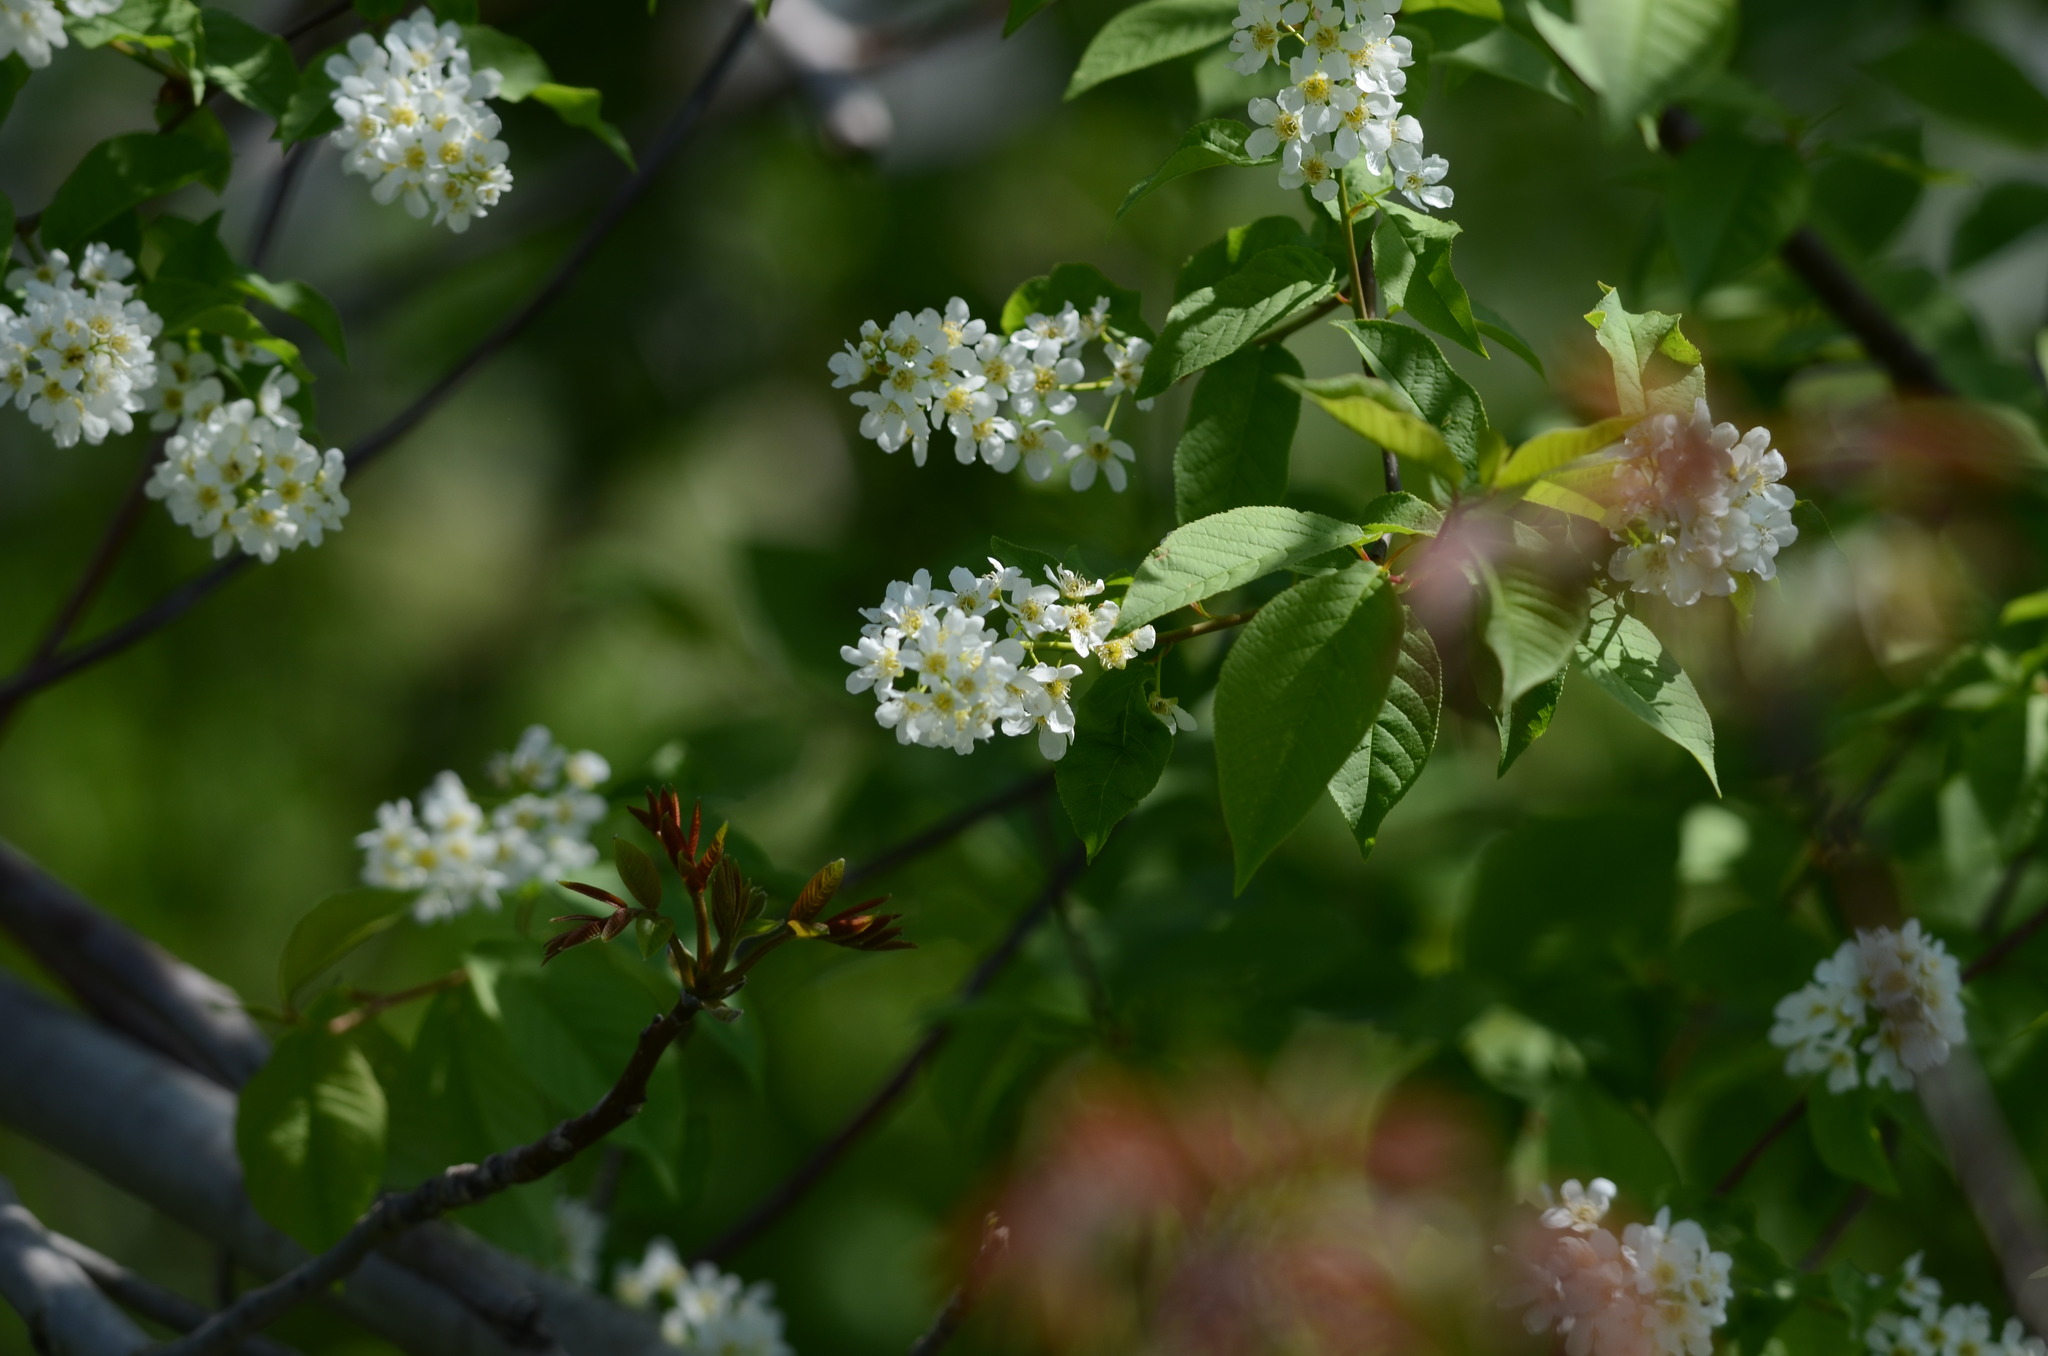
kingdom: Plantae
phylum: Tracheophyta
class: Magnoliopsida
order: Rosales
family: Rosaceae
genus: Prunus
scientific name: Prunus padus
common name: Bird cherry
